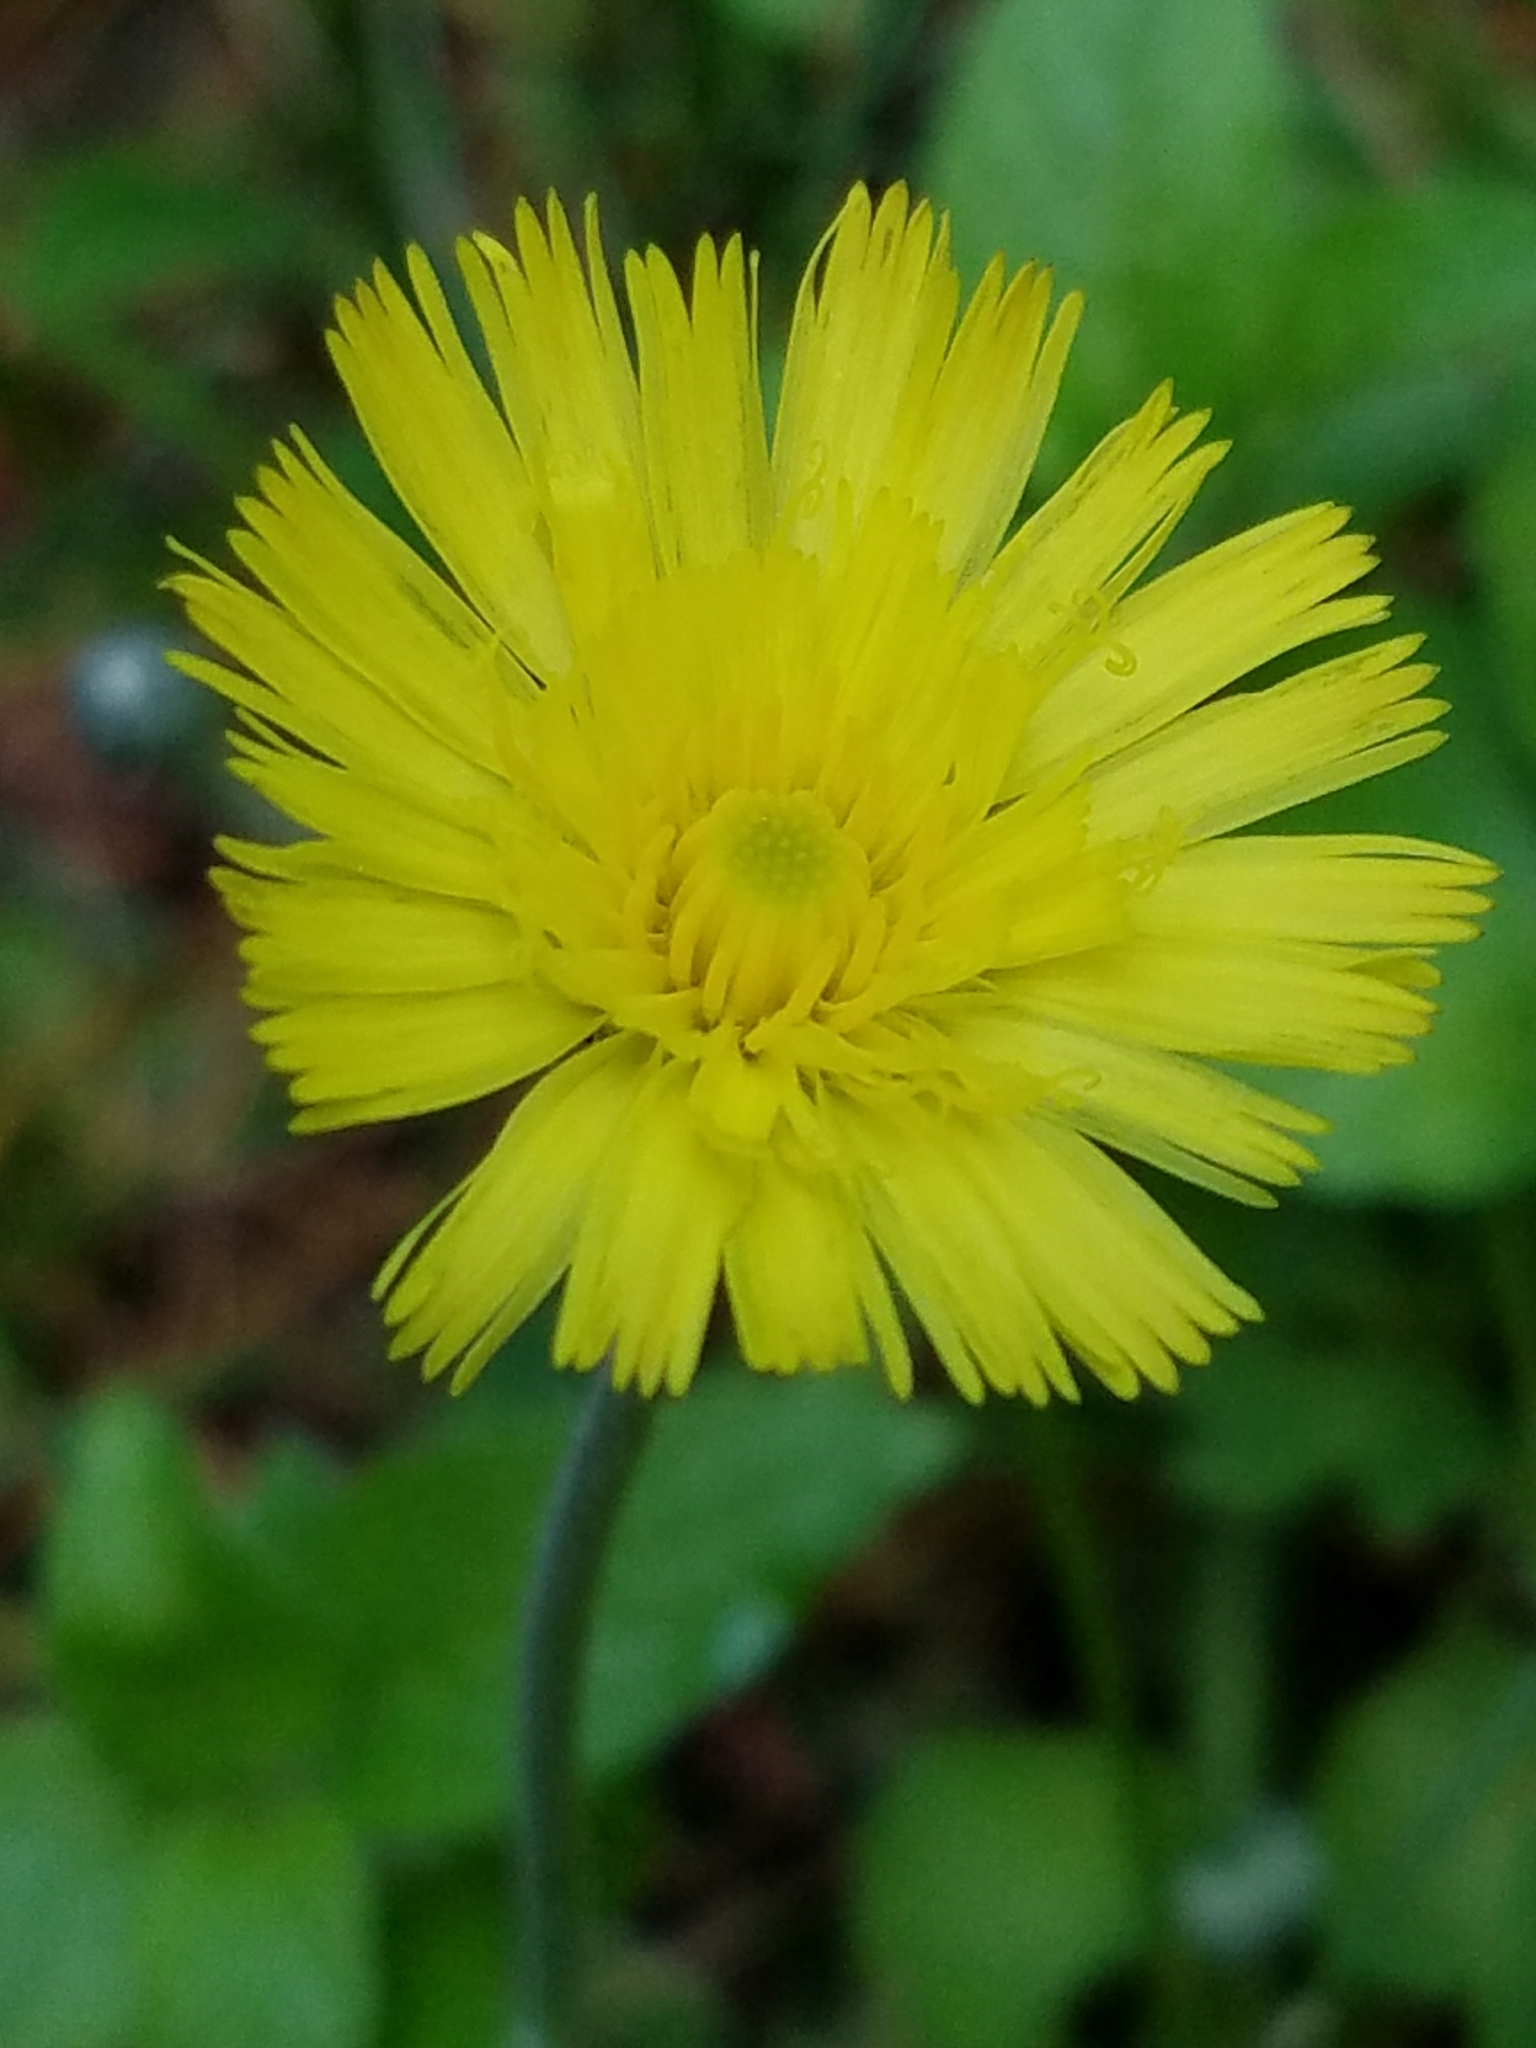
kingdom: Plantae
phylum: Tracheophyta
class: Magnoliopsida
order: Asterales
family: Asteraceae
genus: Pilosella
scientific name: Pilosella officinarum
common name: Mouse-ear hawkweed
